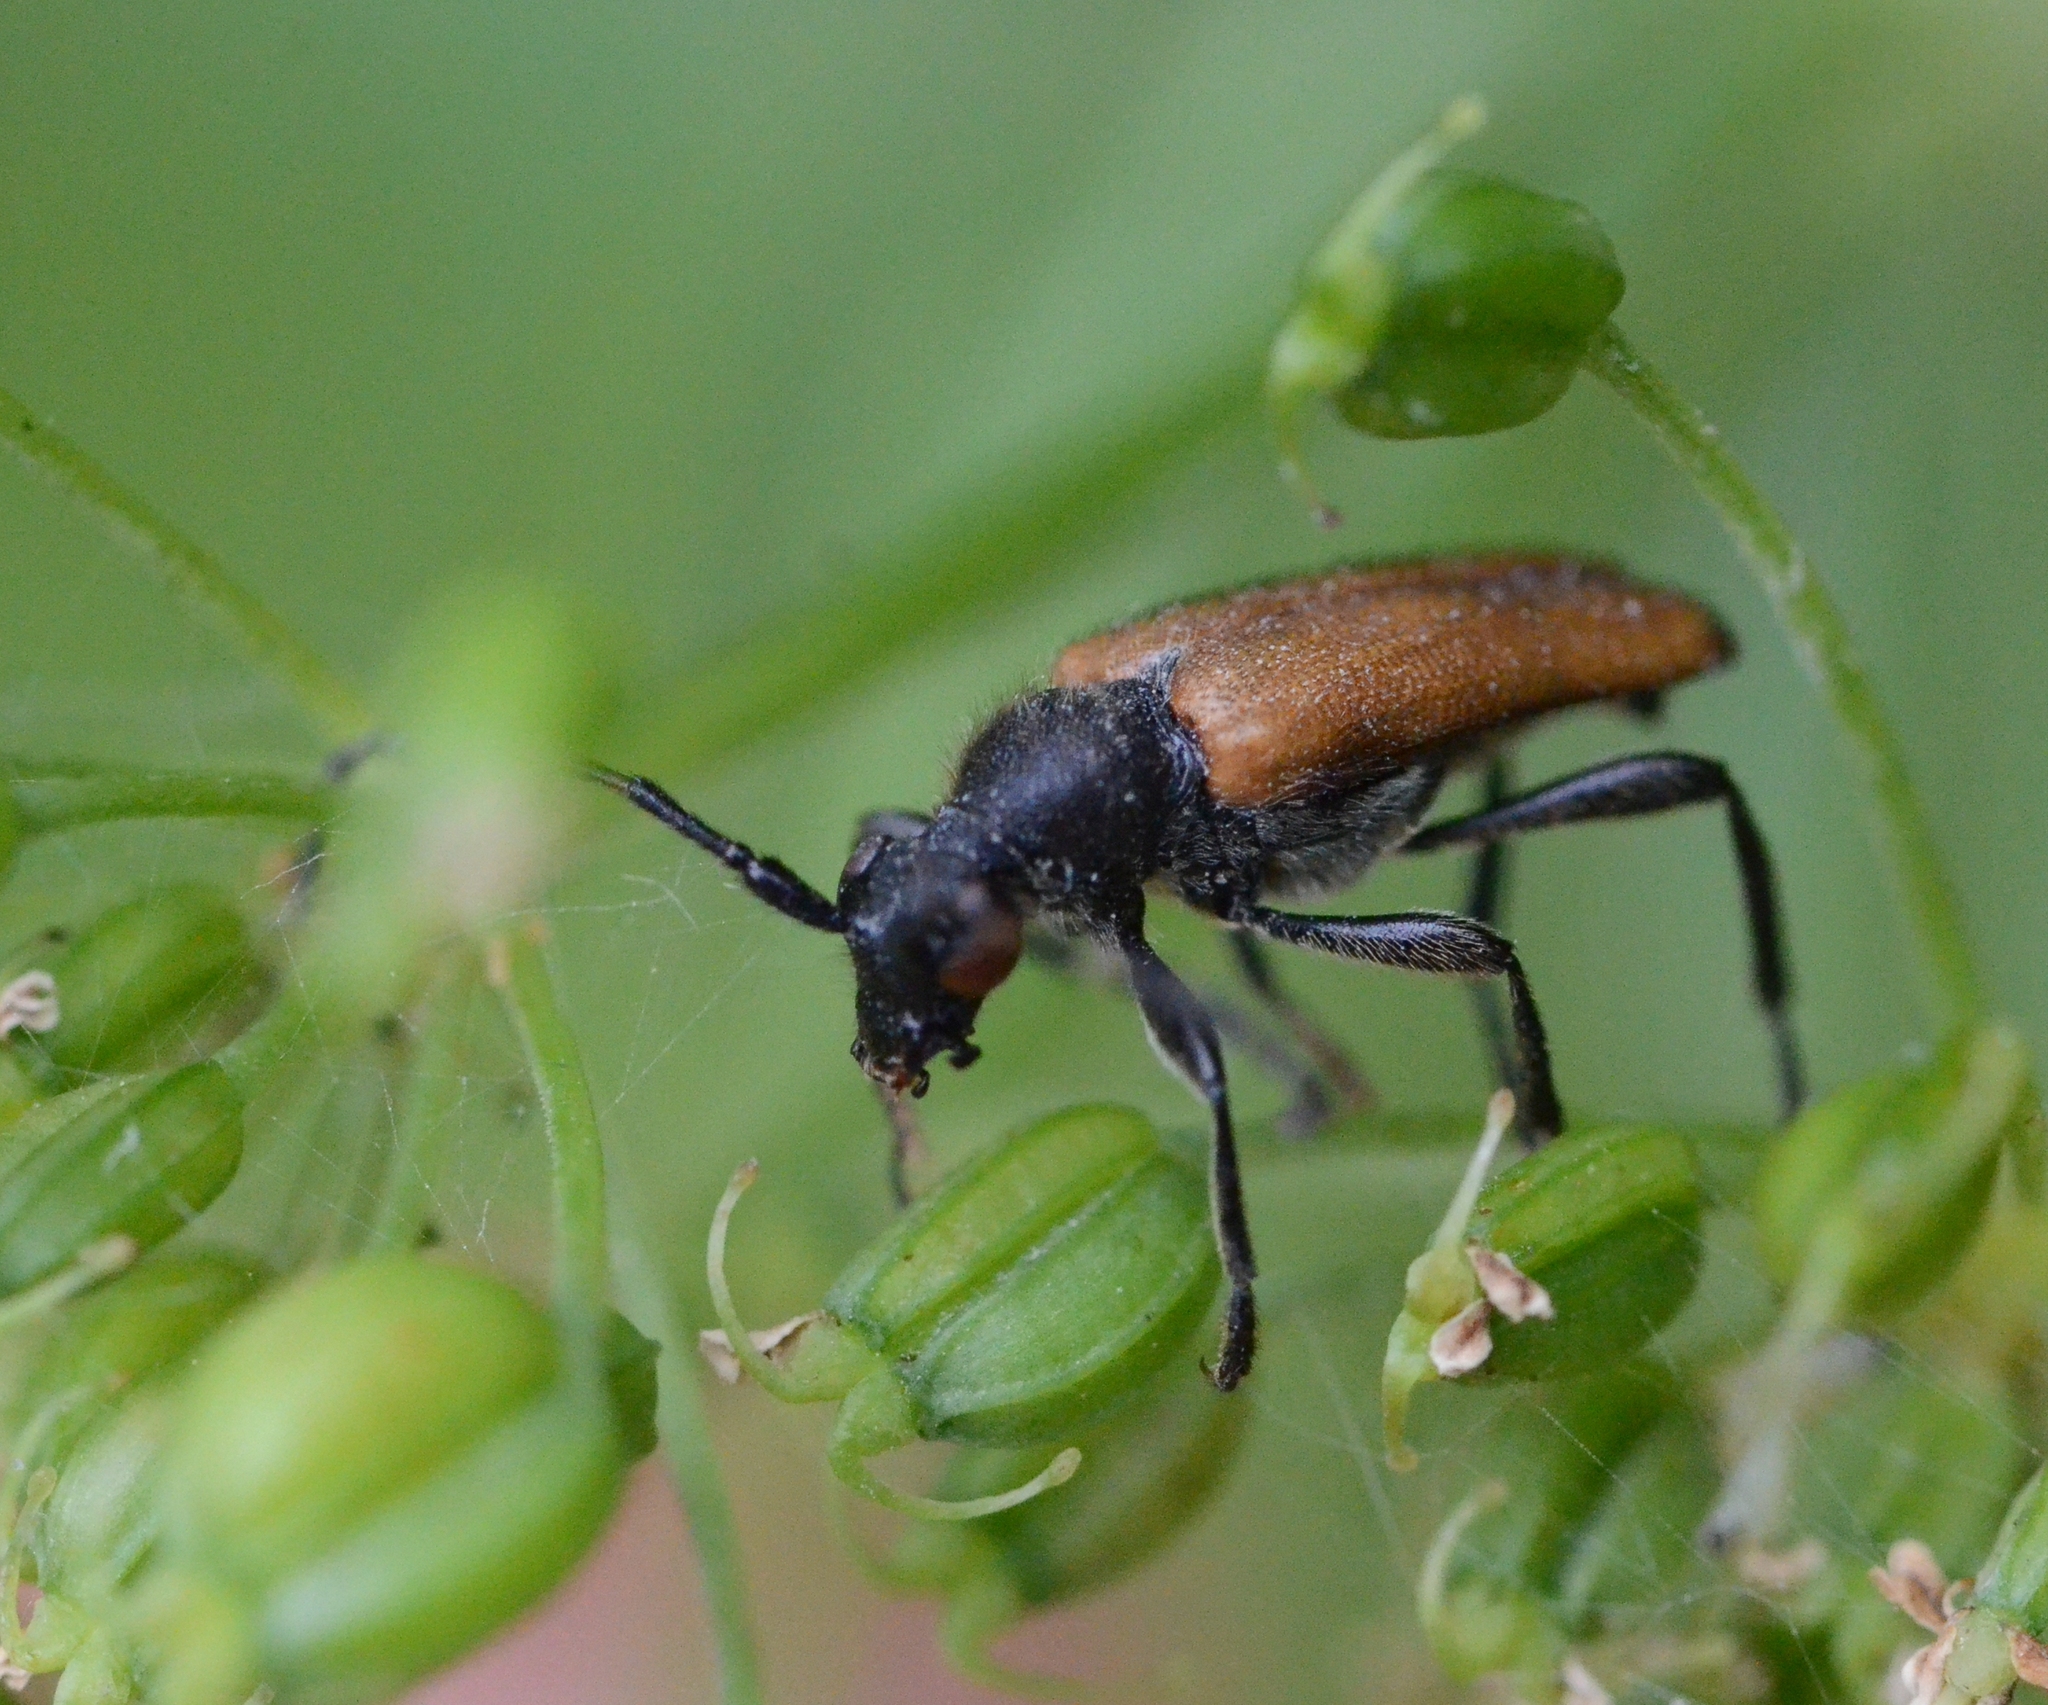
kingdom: Animalia
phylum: Arthropoda
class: Insecta
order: Coleoptera
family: Cerambycidae
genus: Paracorymbia
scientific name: Paracorymbia maculicornis
